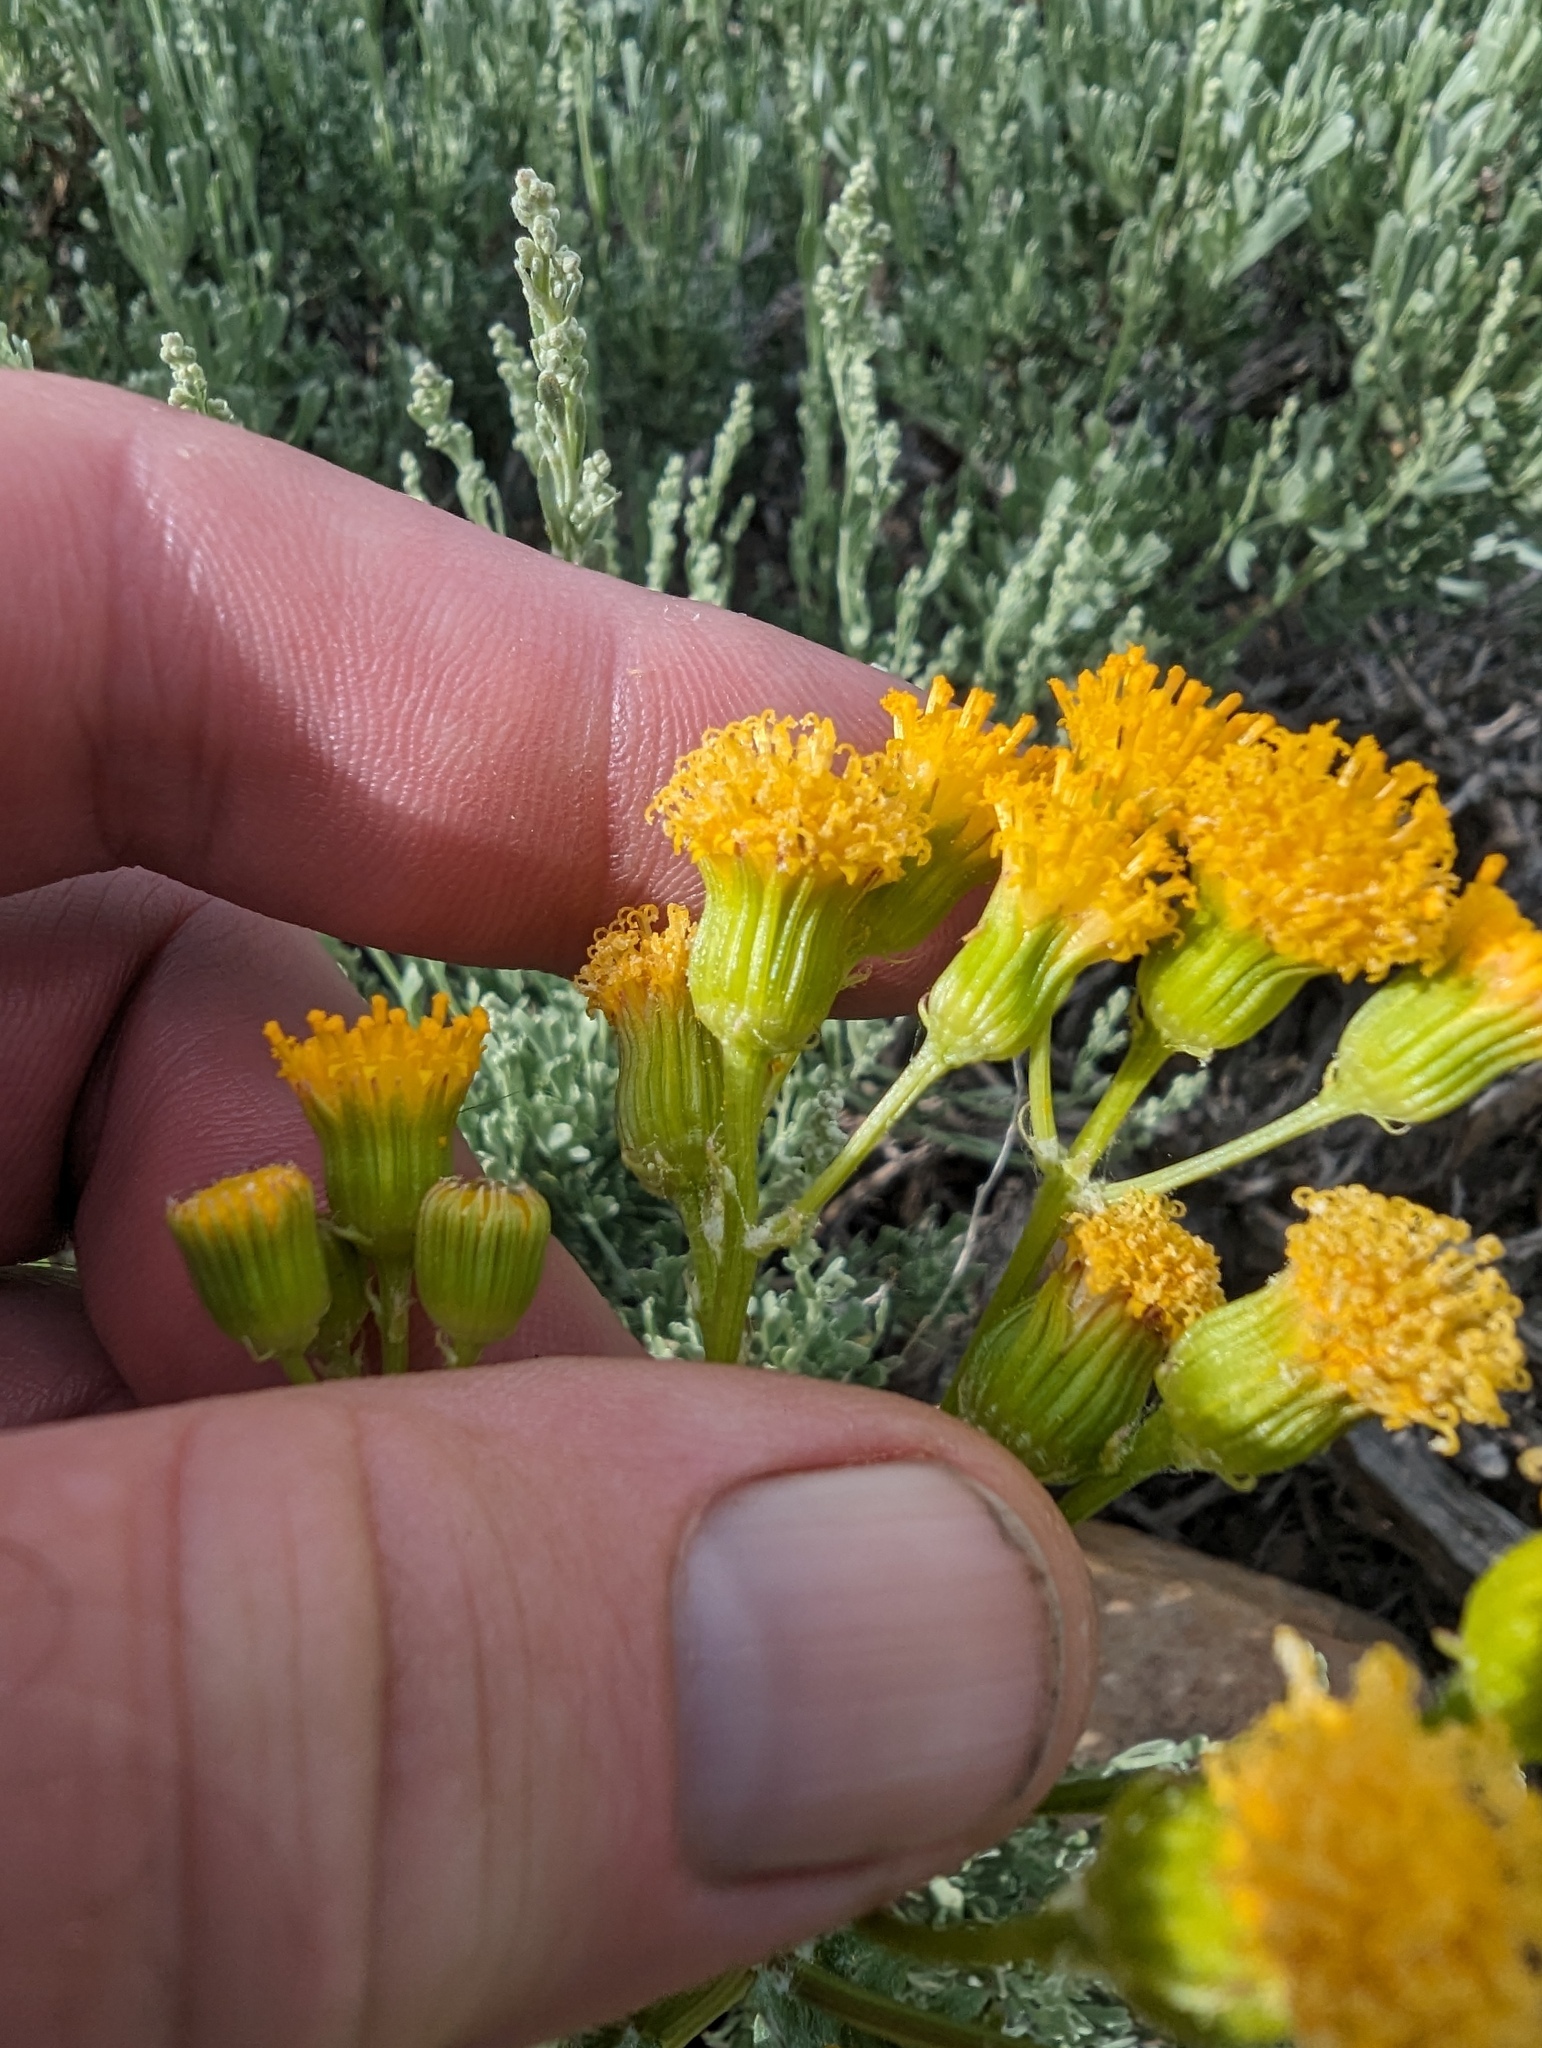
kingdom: Plantae
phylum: Tracheophyta
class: Magnoliopsida
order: Asterales
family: Asteraceae
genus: Packera
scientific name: Packera multilobata
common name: Lobe-leaf groundsel
